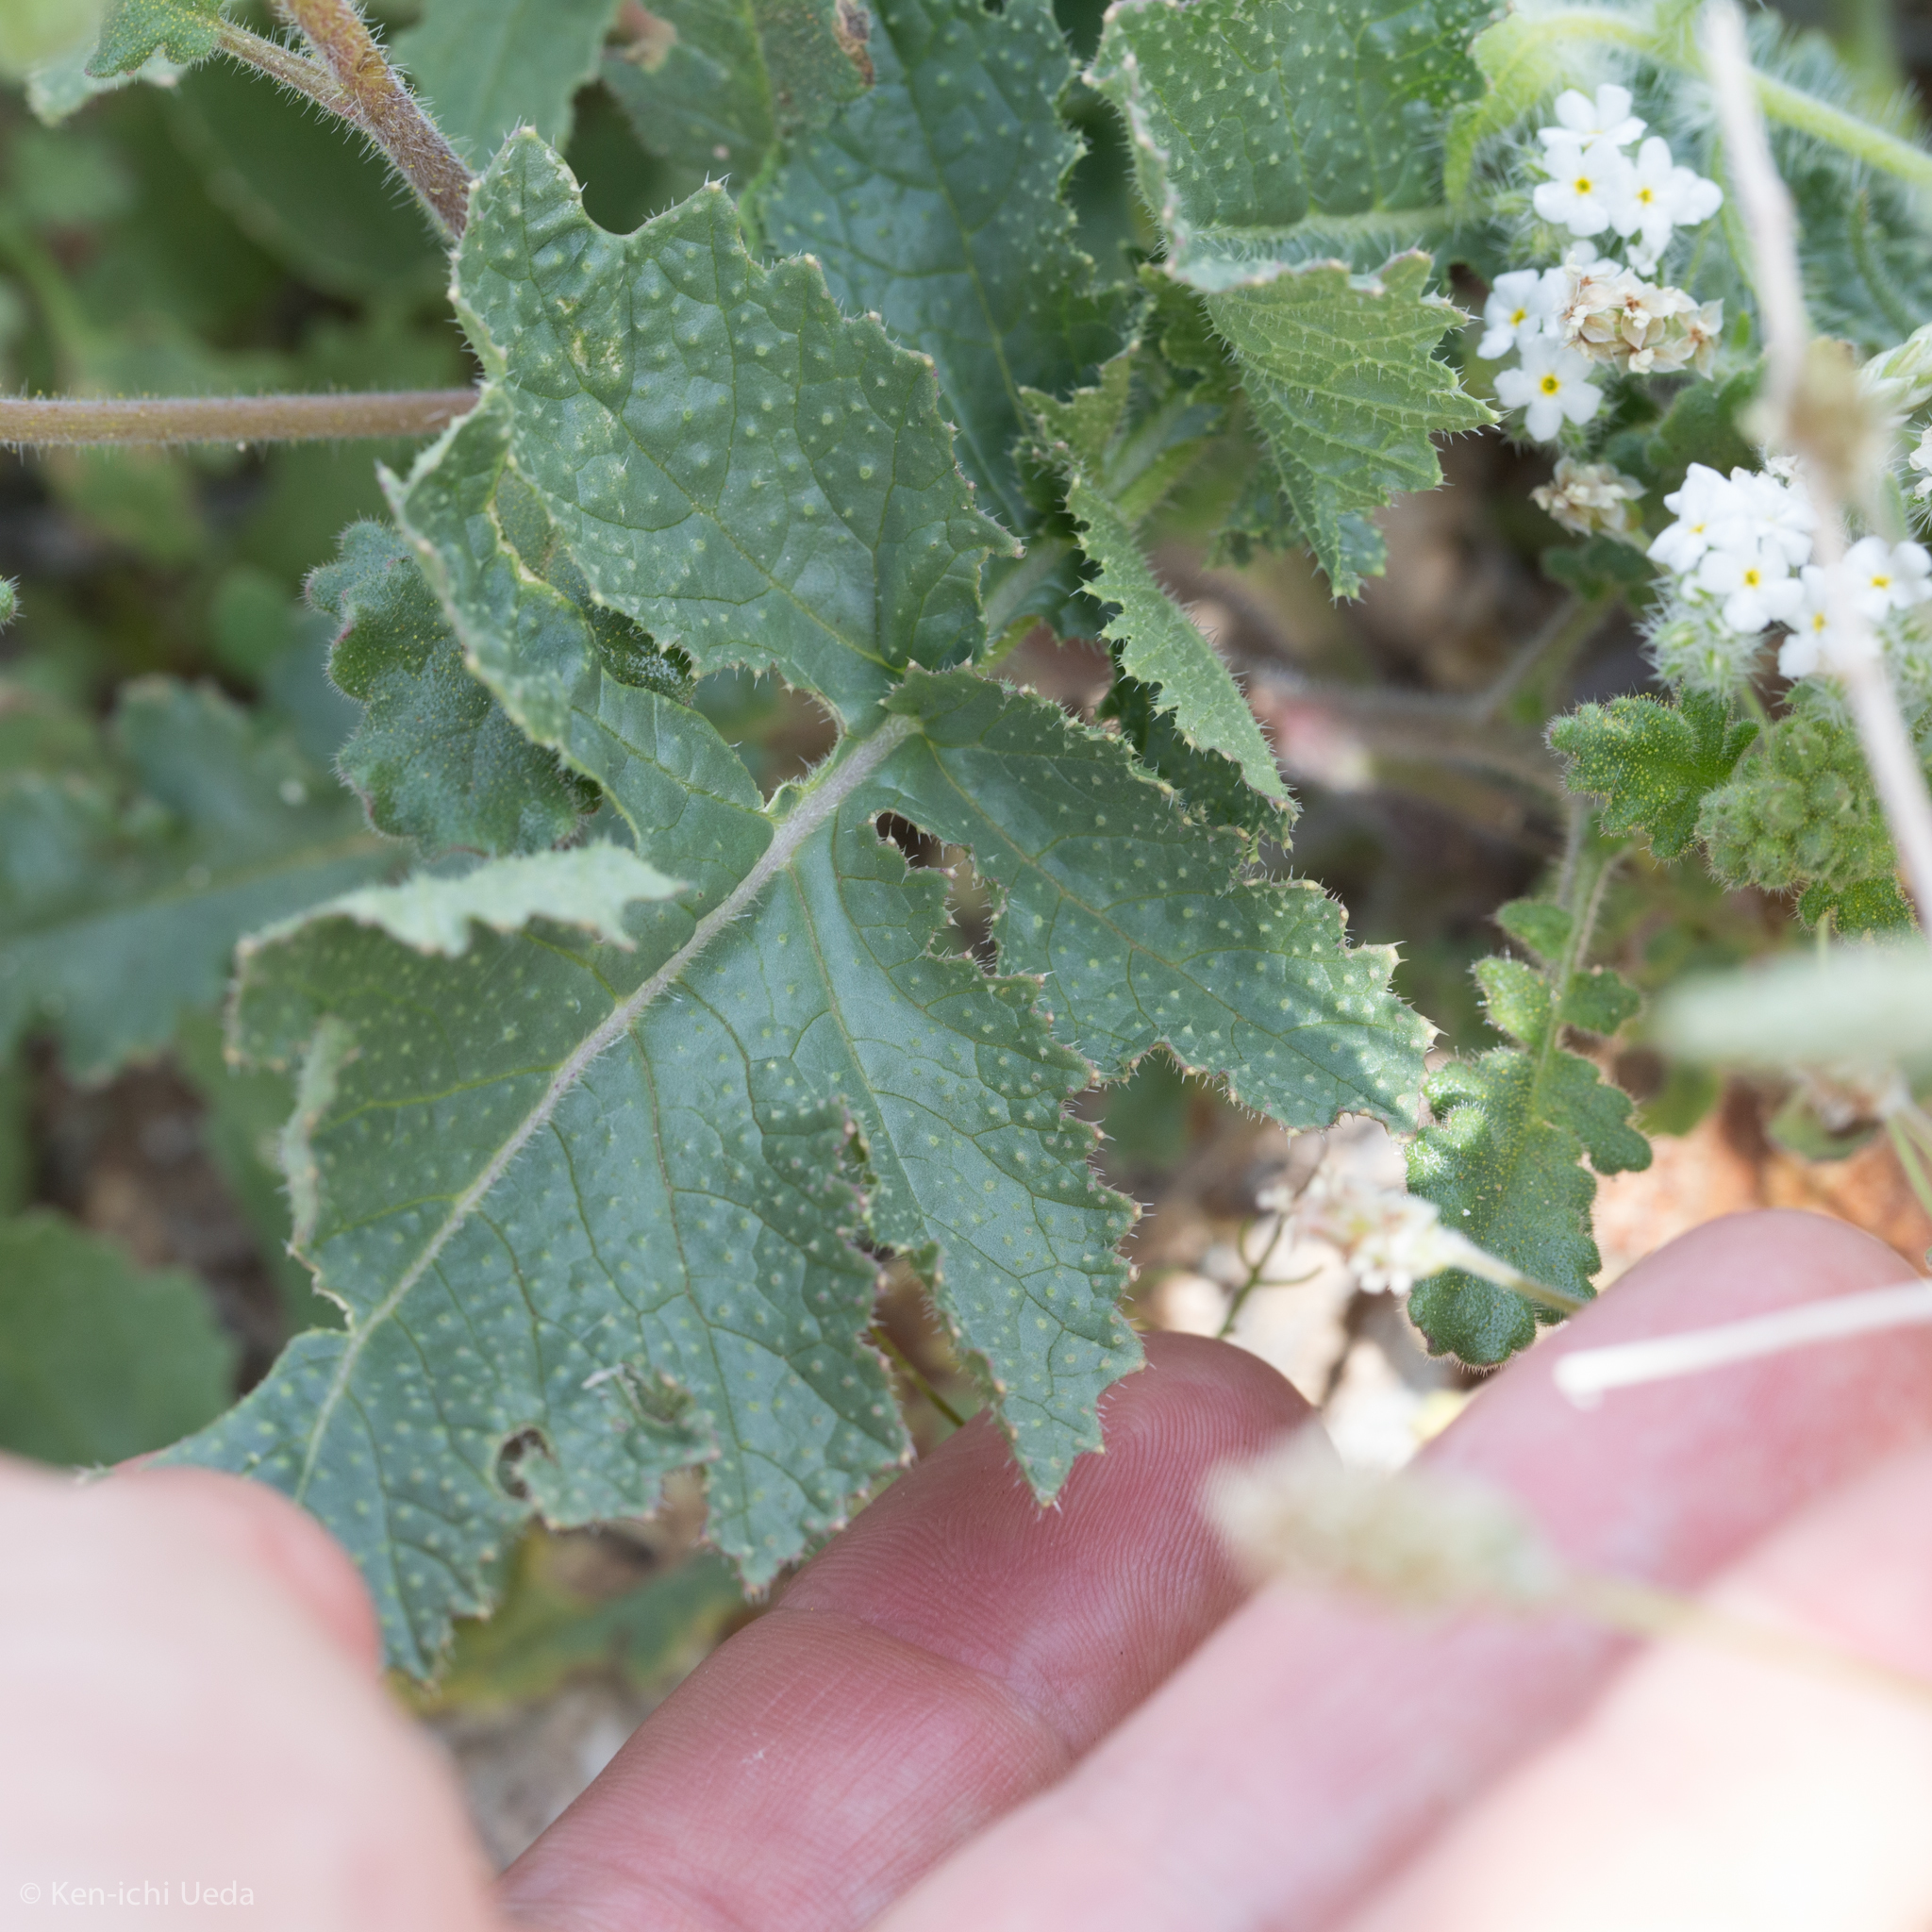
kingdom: Plantae
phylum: Tracheophyta
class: Magnoliopsida
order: Brassicales
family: Brassicaceae
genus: Brassica
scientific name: Brassica tournefortii
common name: Pale cabbage
